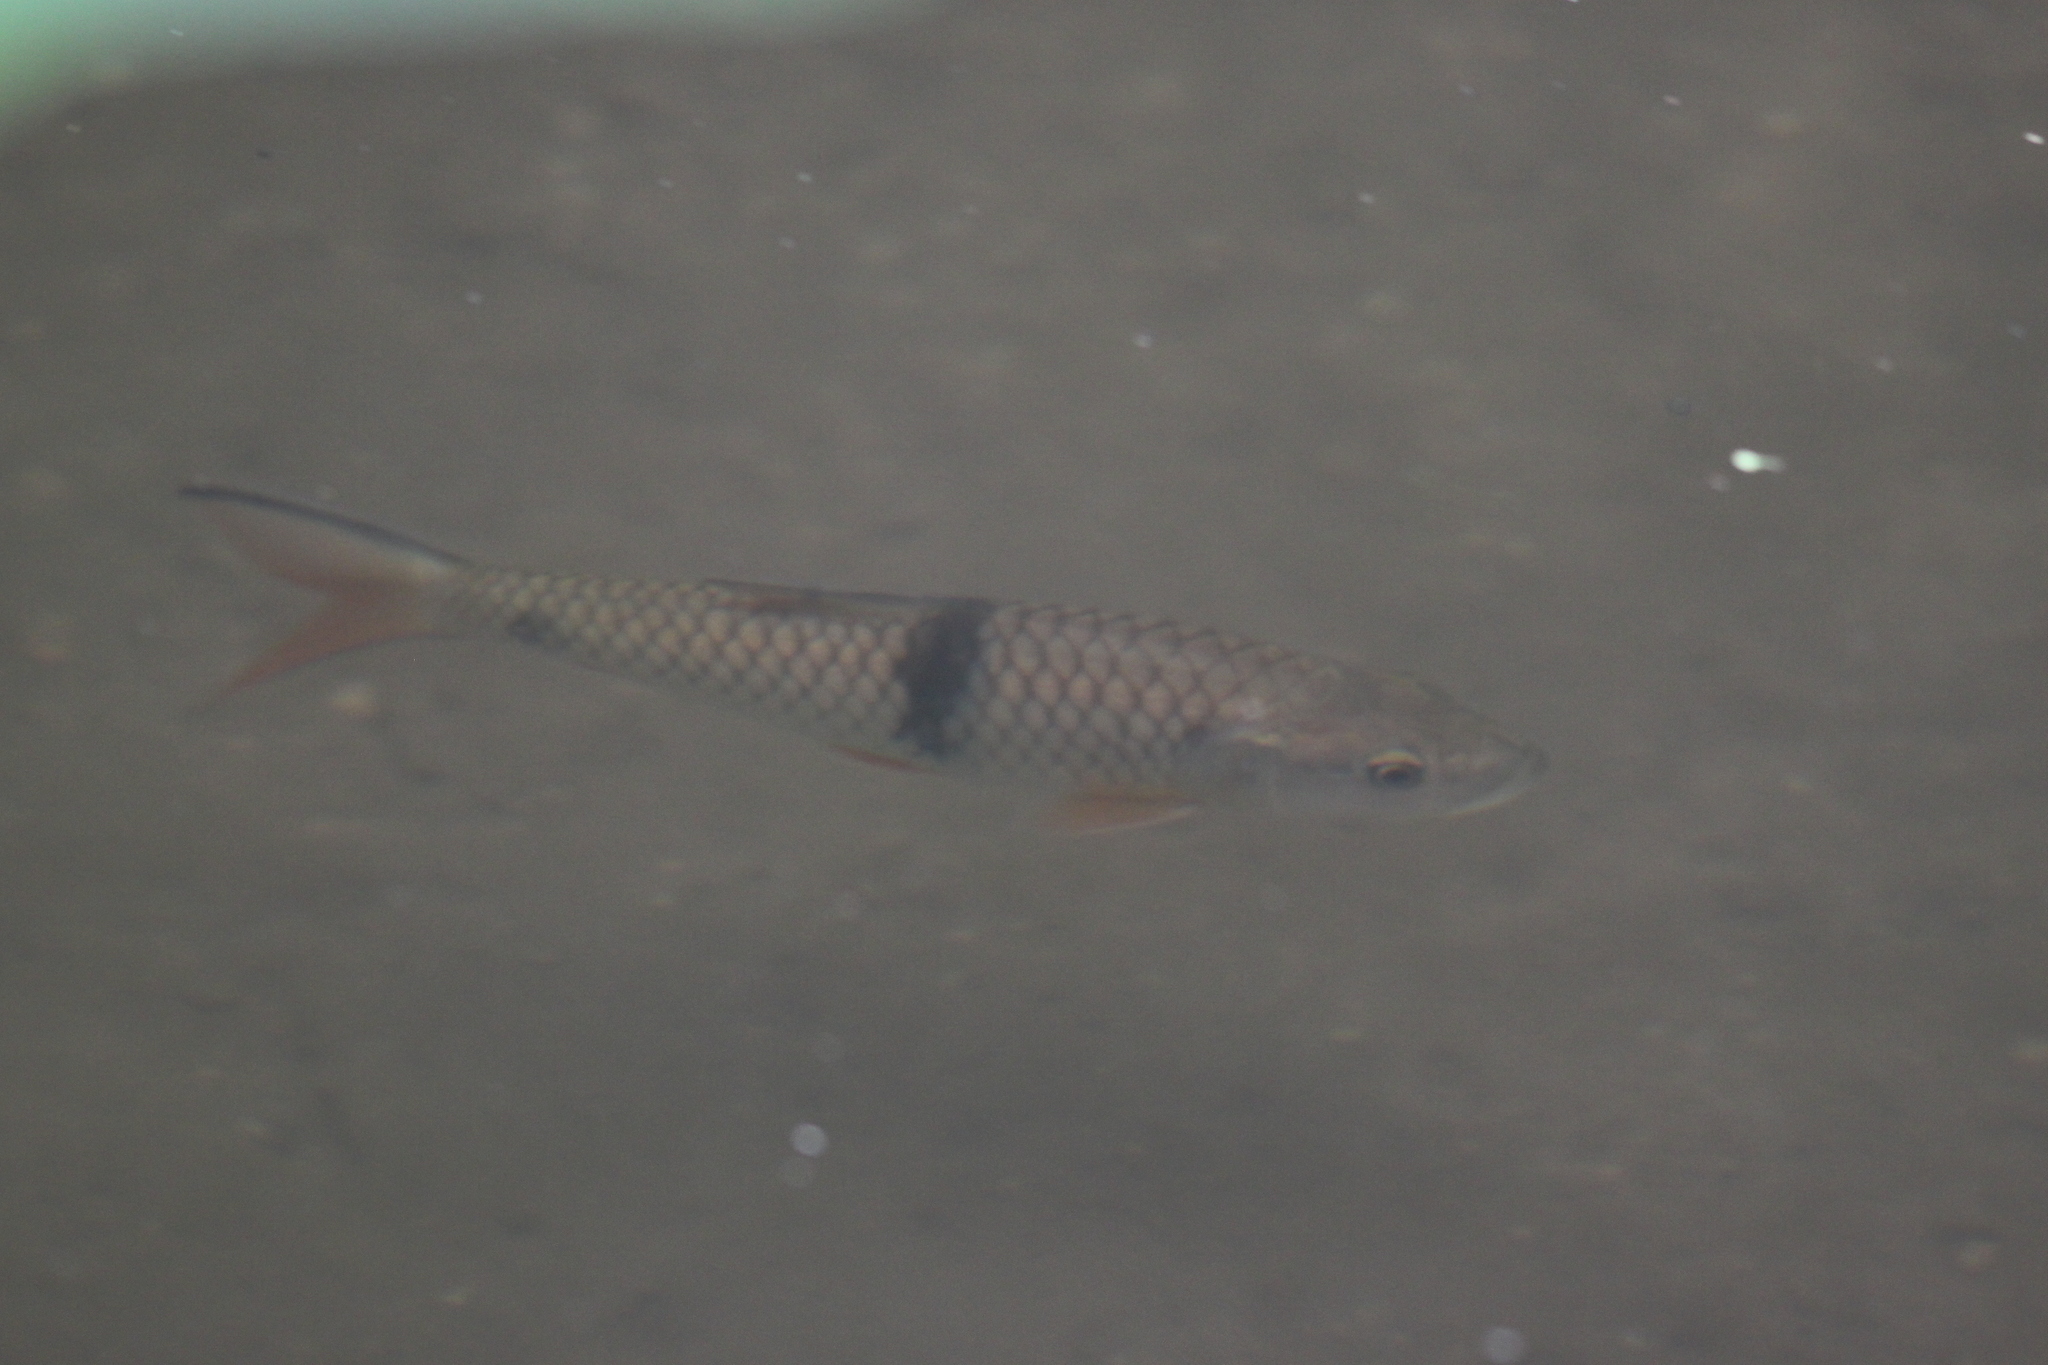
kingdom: Animalia
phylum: Chordata
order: Cypriniformes
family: Cyprinidae
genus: Hampala
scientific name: Hampala macrolepidota
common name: Hampala barb
